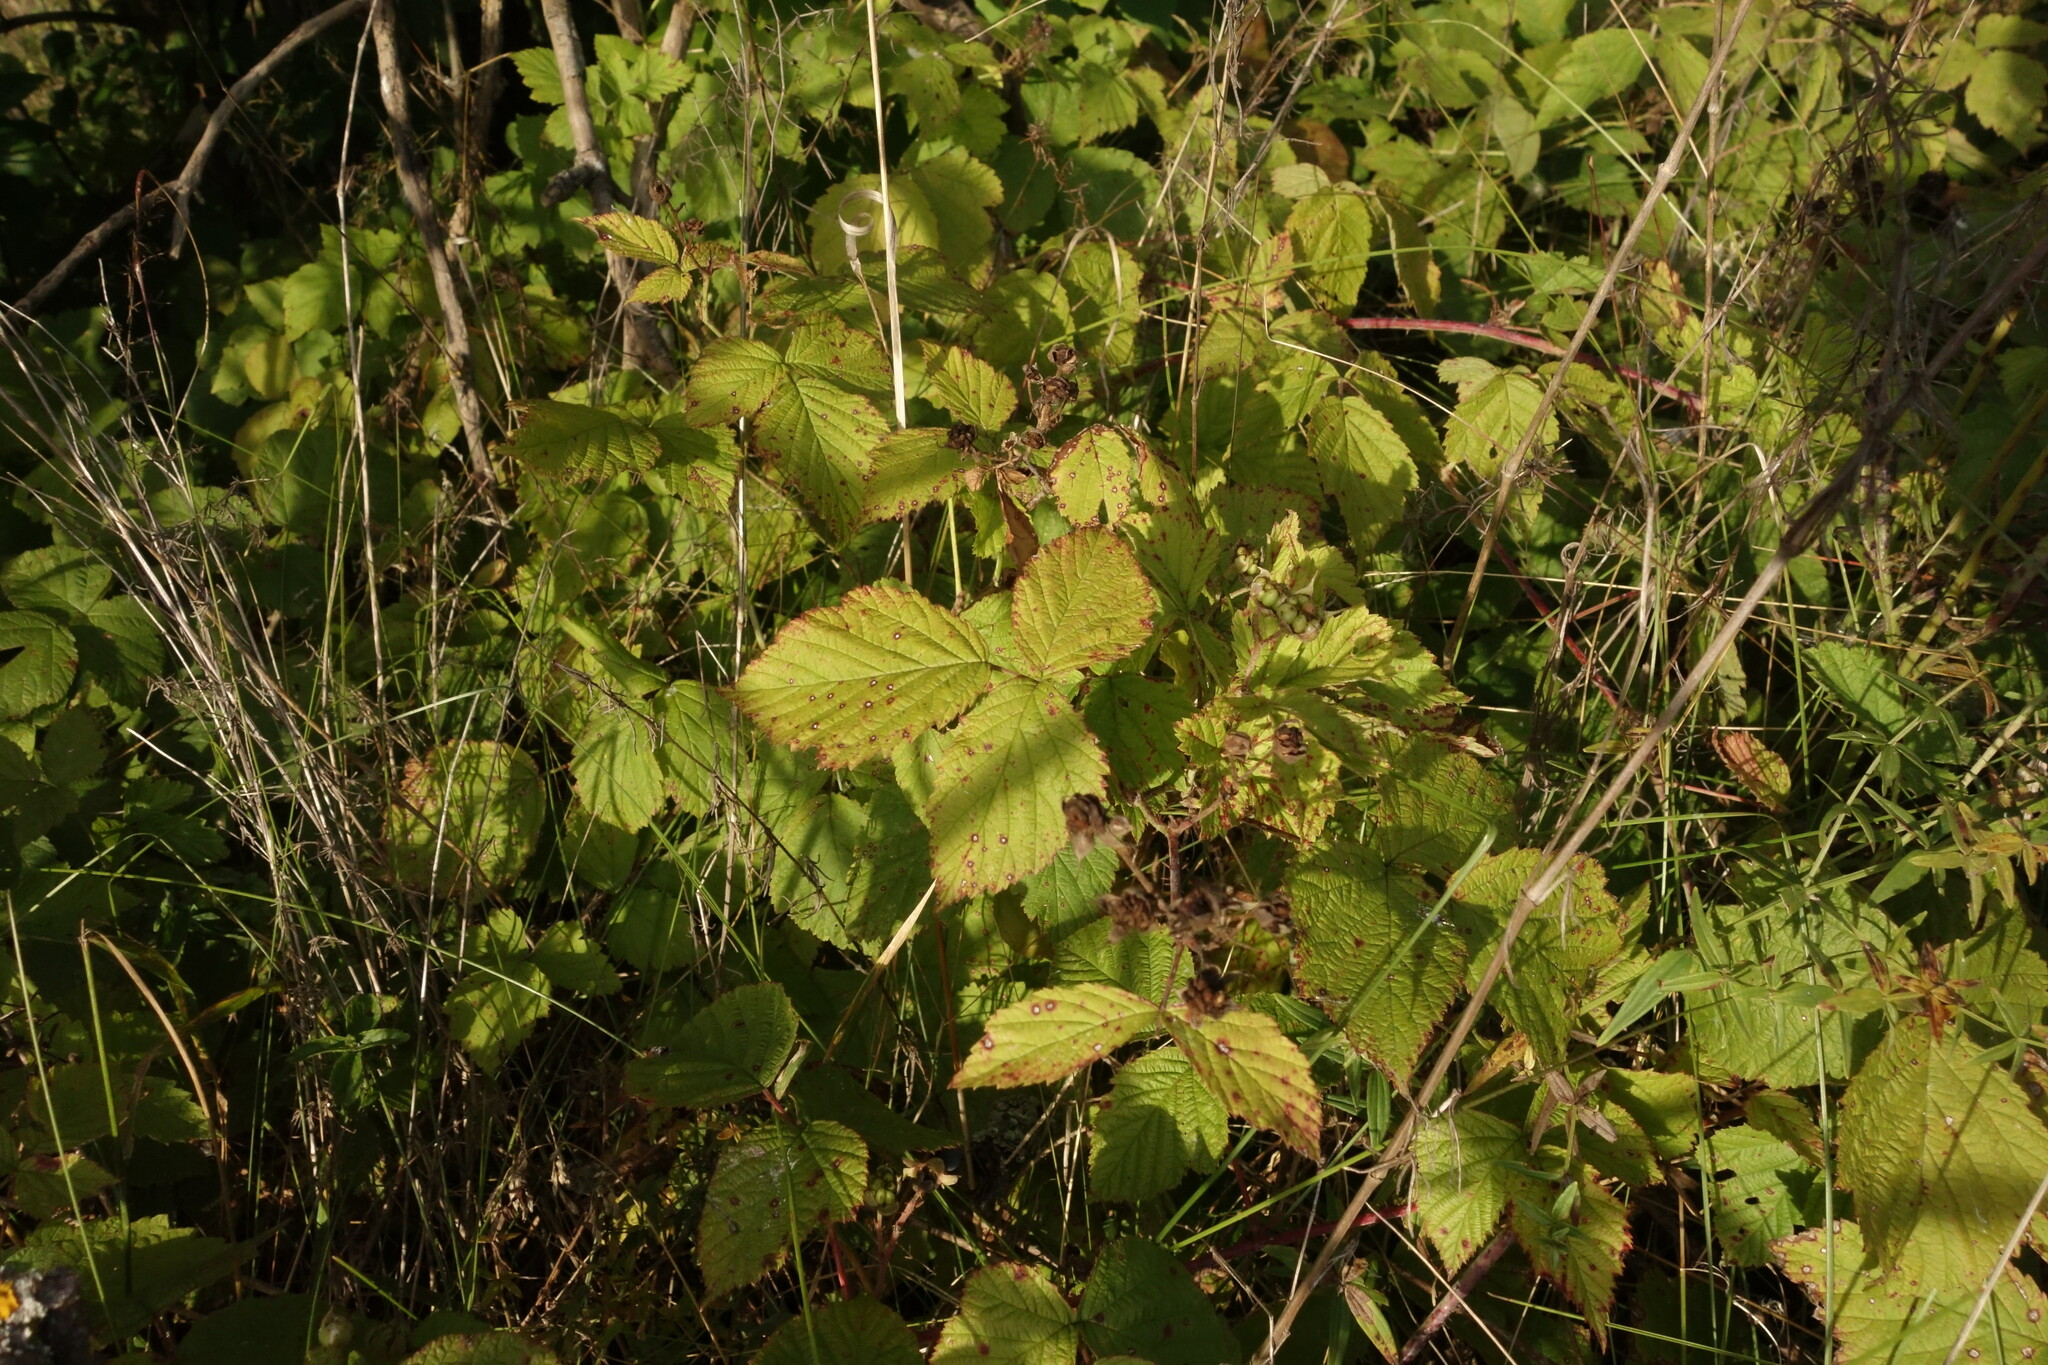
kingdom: Plantae
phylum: Tracheophyta
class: Magnoliopsida
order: Rosales
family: Rosaceae
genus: Rubus
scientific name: Rubus caesius
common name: Dewberry
